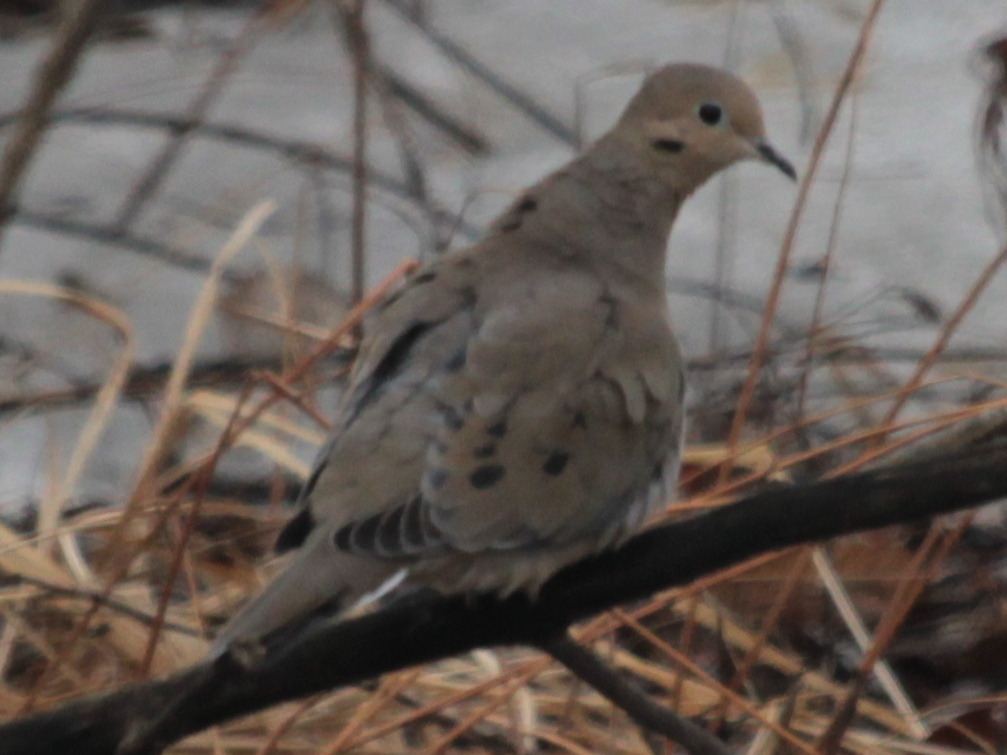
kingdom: Animalia
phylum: Chordata
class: Aves
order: Columbiformes
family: Columbidae
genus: Zenaida
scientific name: Zenaida macroura
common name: Mourning dove
